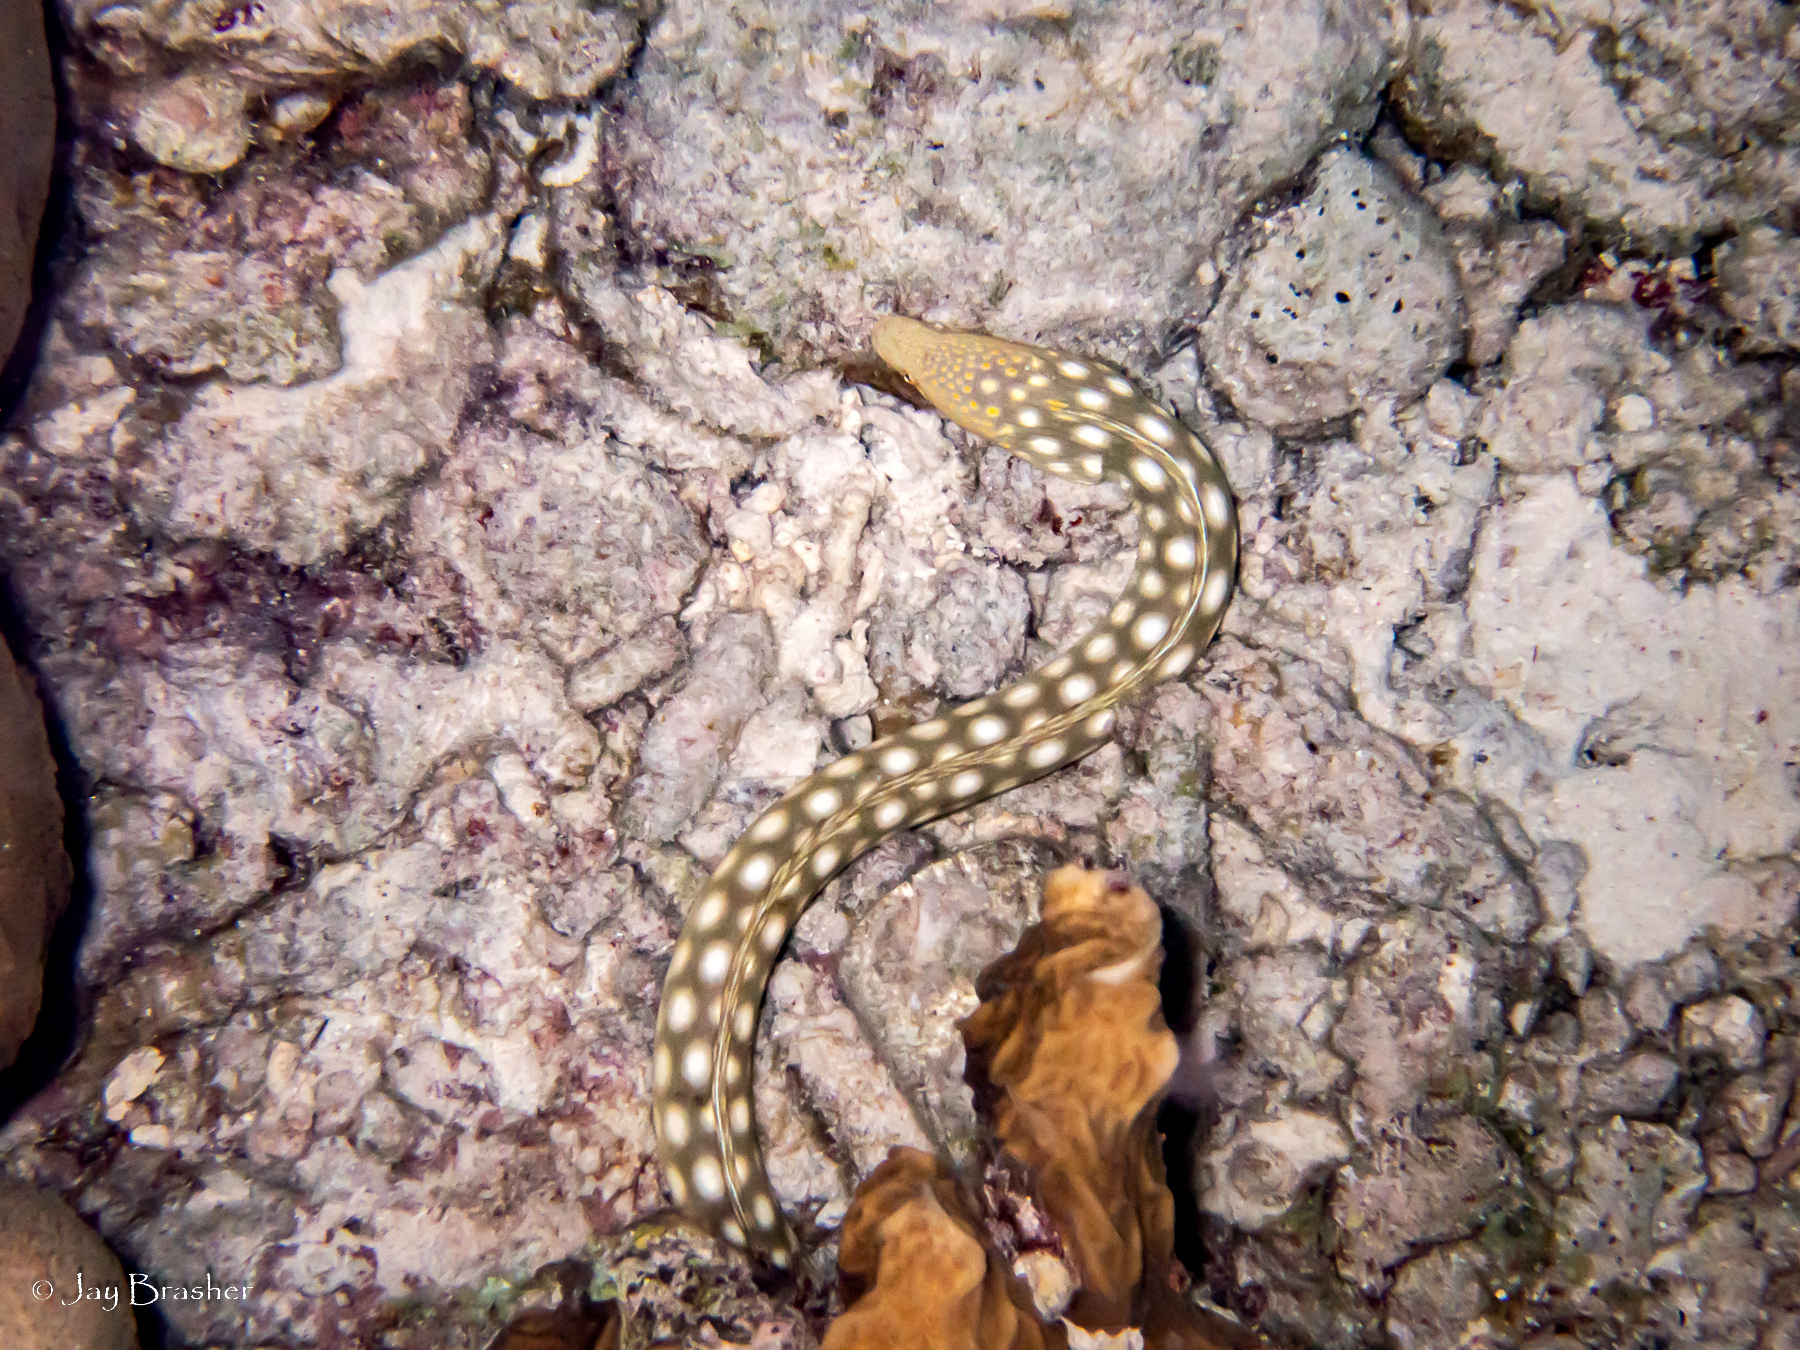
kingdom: Animalia
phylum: Chordata
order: Anguilliformes
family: Ophichthidae
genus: Myrichthys
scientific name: Myrichthys breviceps
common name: Sharptail eel
